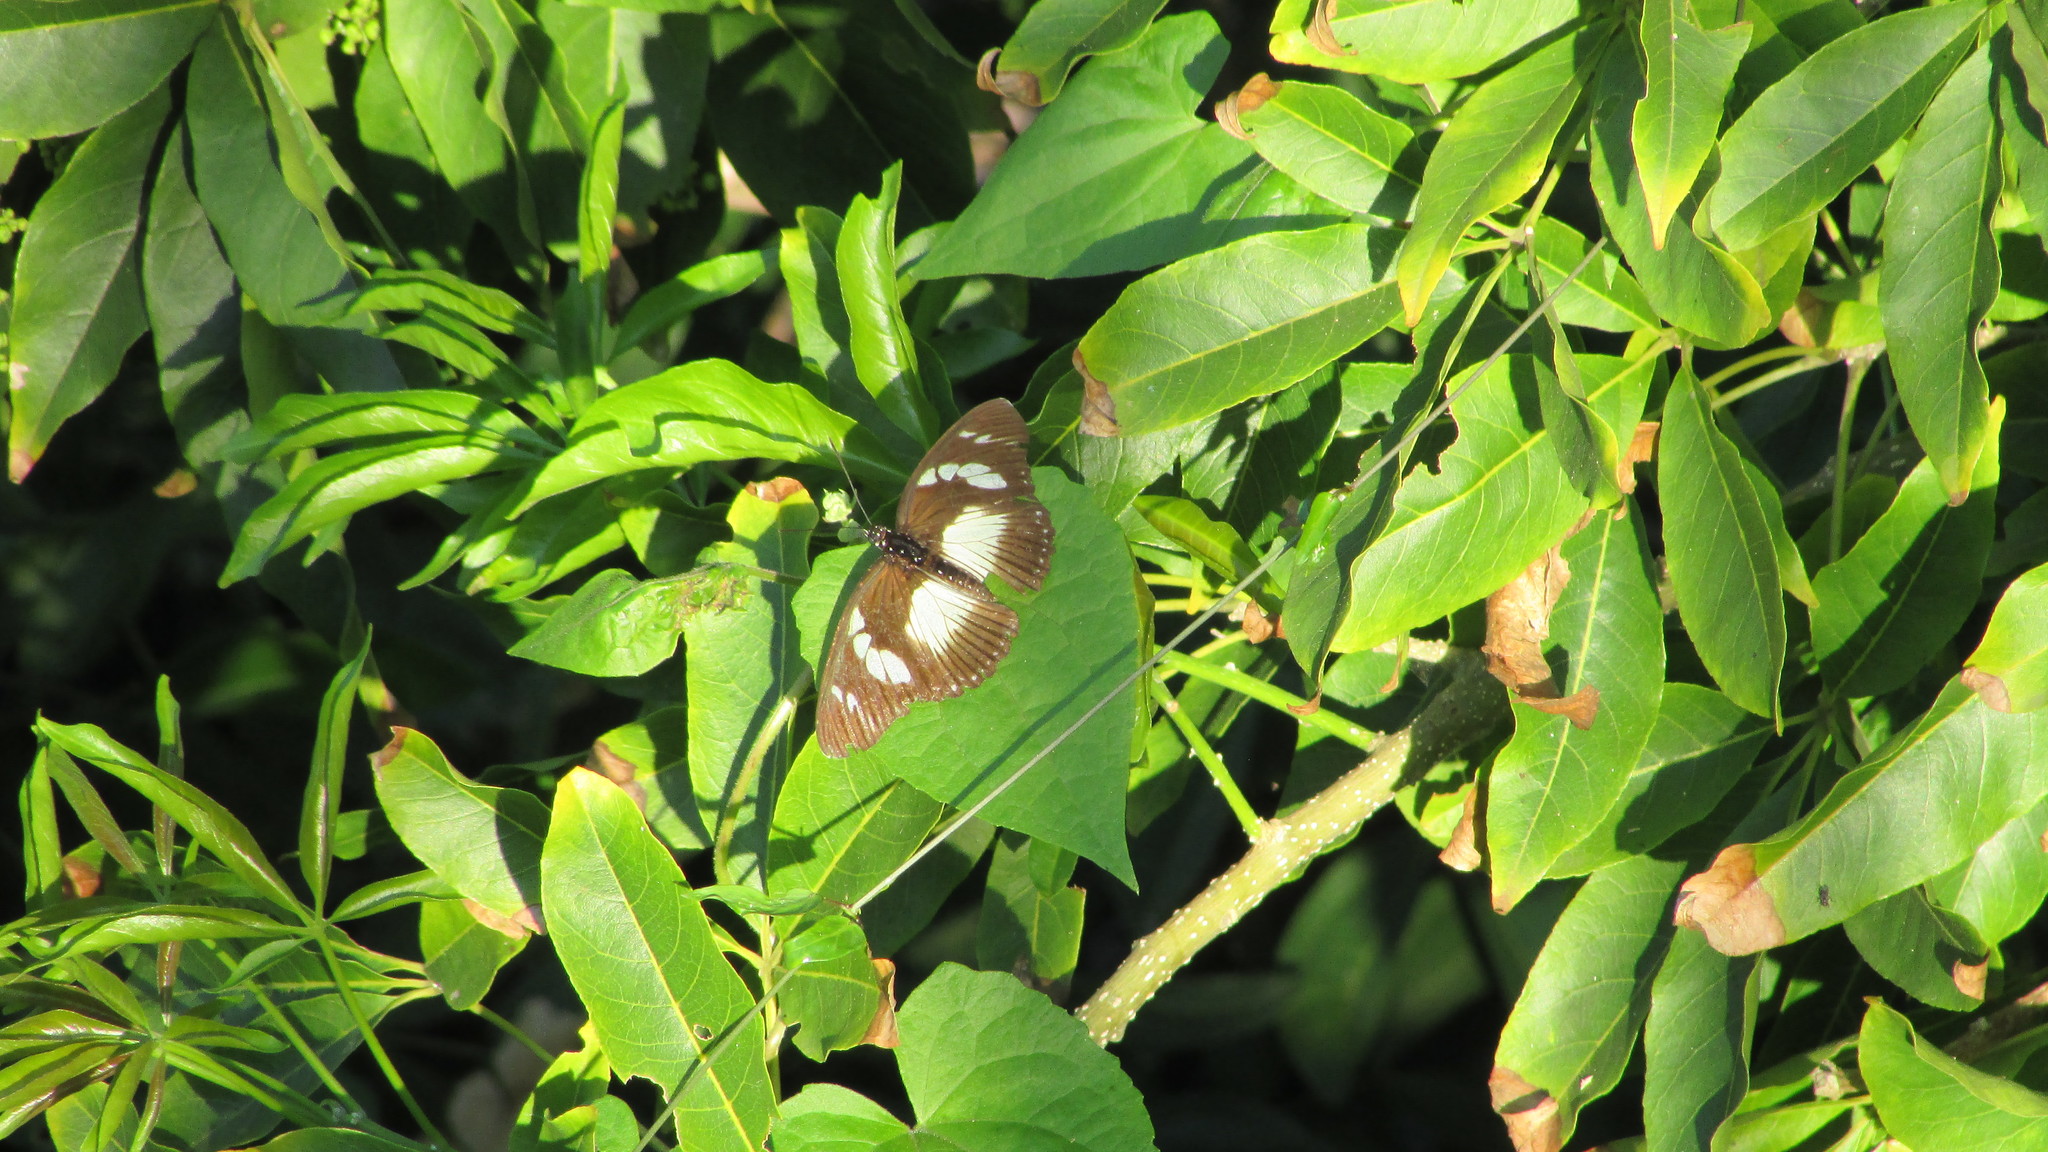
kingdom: Animalia
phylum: Arthropoda
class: Insecta
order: Lepidoptera
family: Nymphalidae
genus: Chloropoea
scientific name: Chloropoea lucretia
